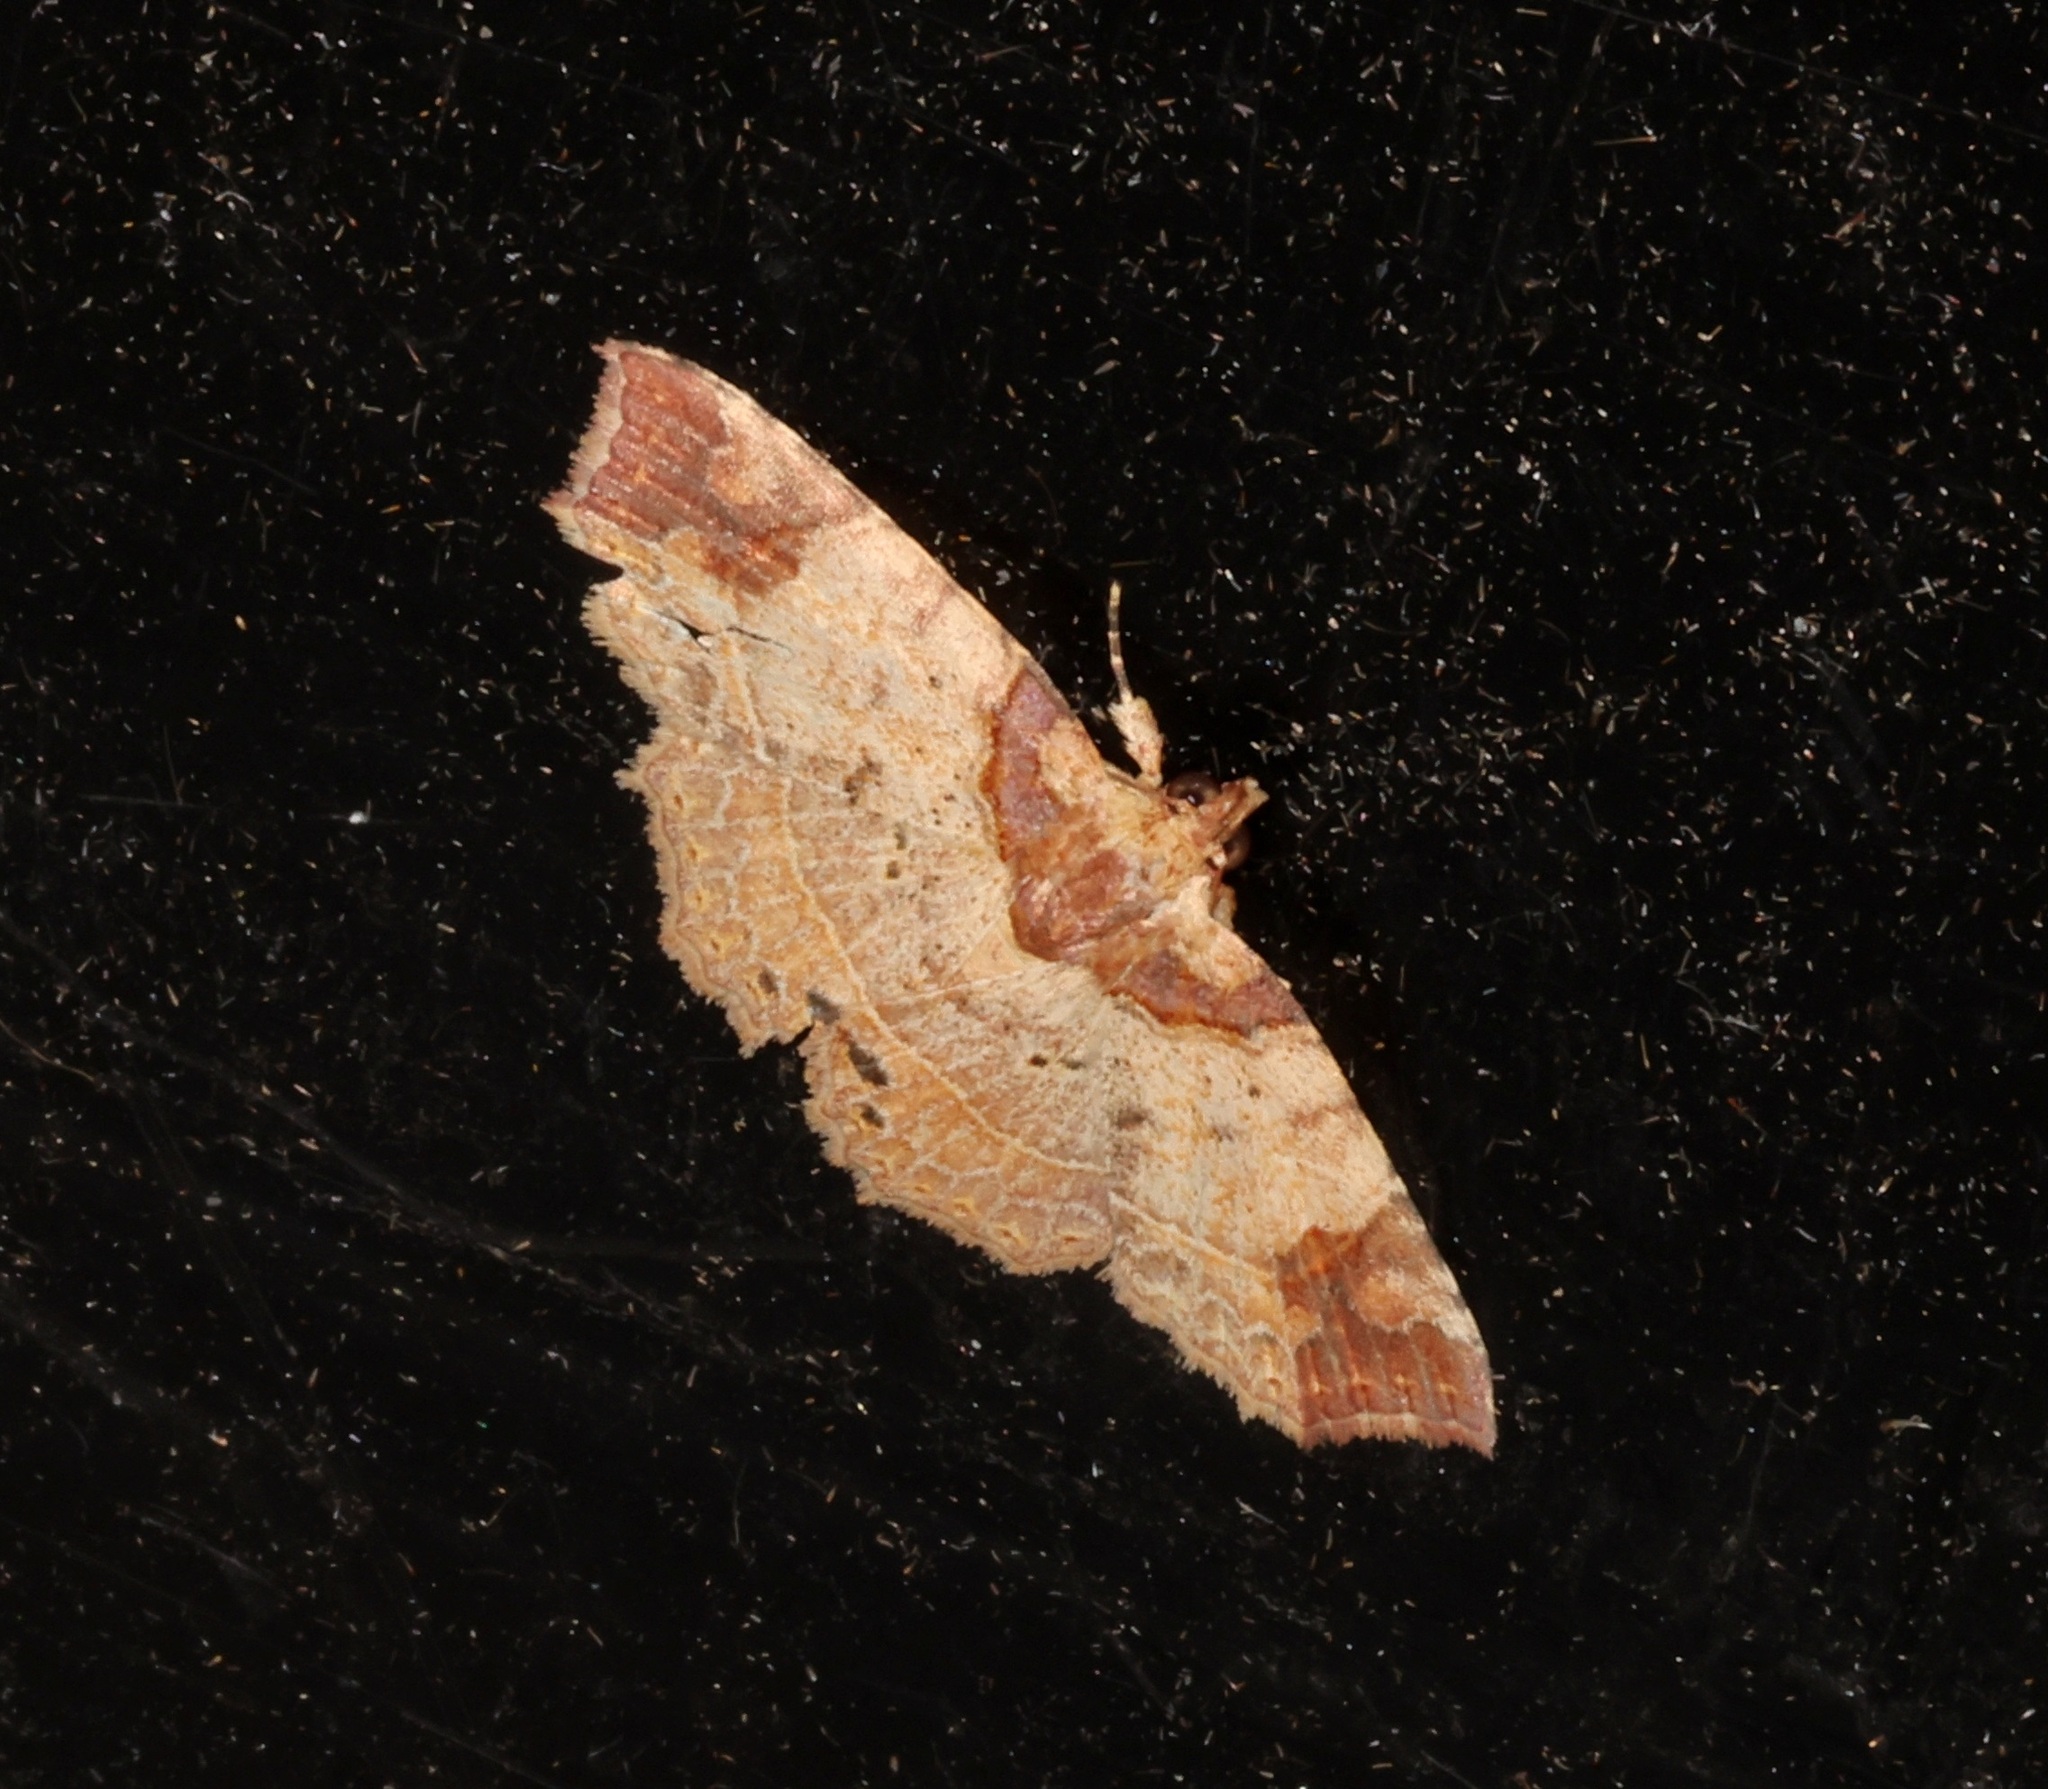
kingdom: Animalia
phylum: Arthropoda
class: Insecta
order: Lepidoptera
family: Erebidae
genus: Tamba
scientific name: Tamba apicata
